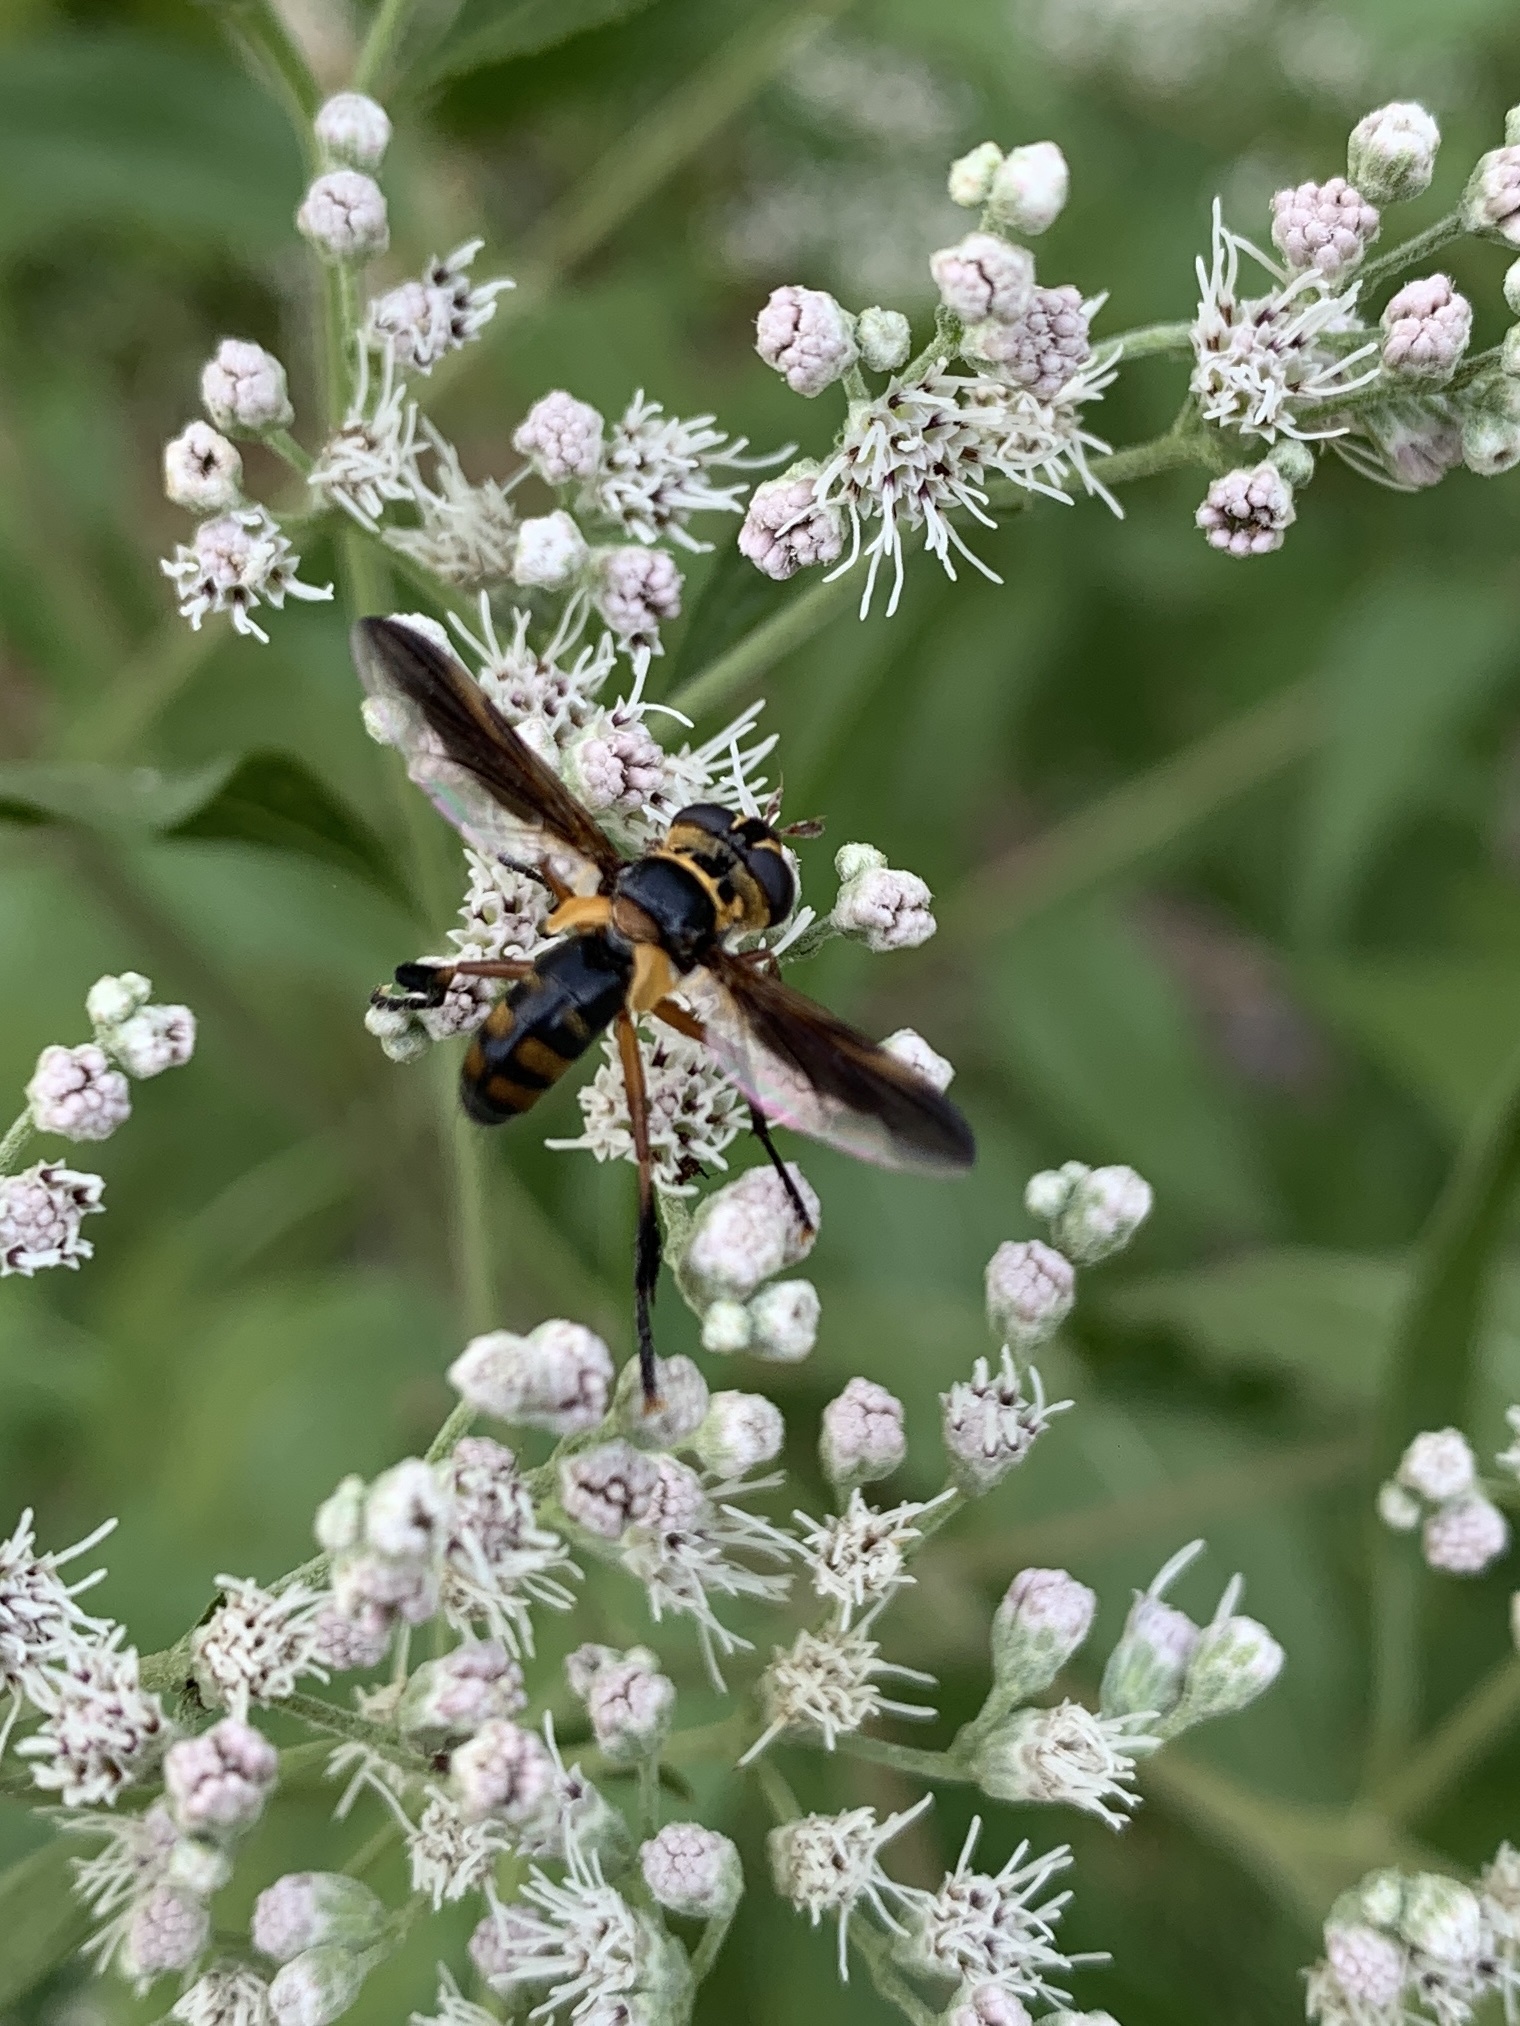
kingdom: Animalia
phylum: Arthropoda
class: Insecta
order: Diptera
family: Tachinidae
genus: Trichopoda
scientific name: Trichopoda plumipes
